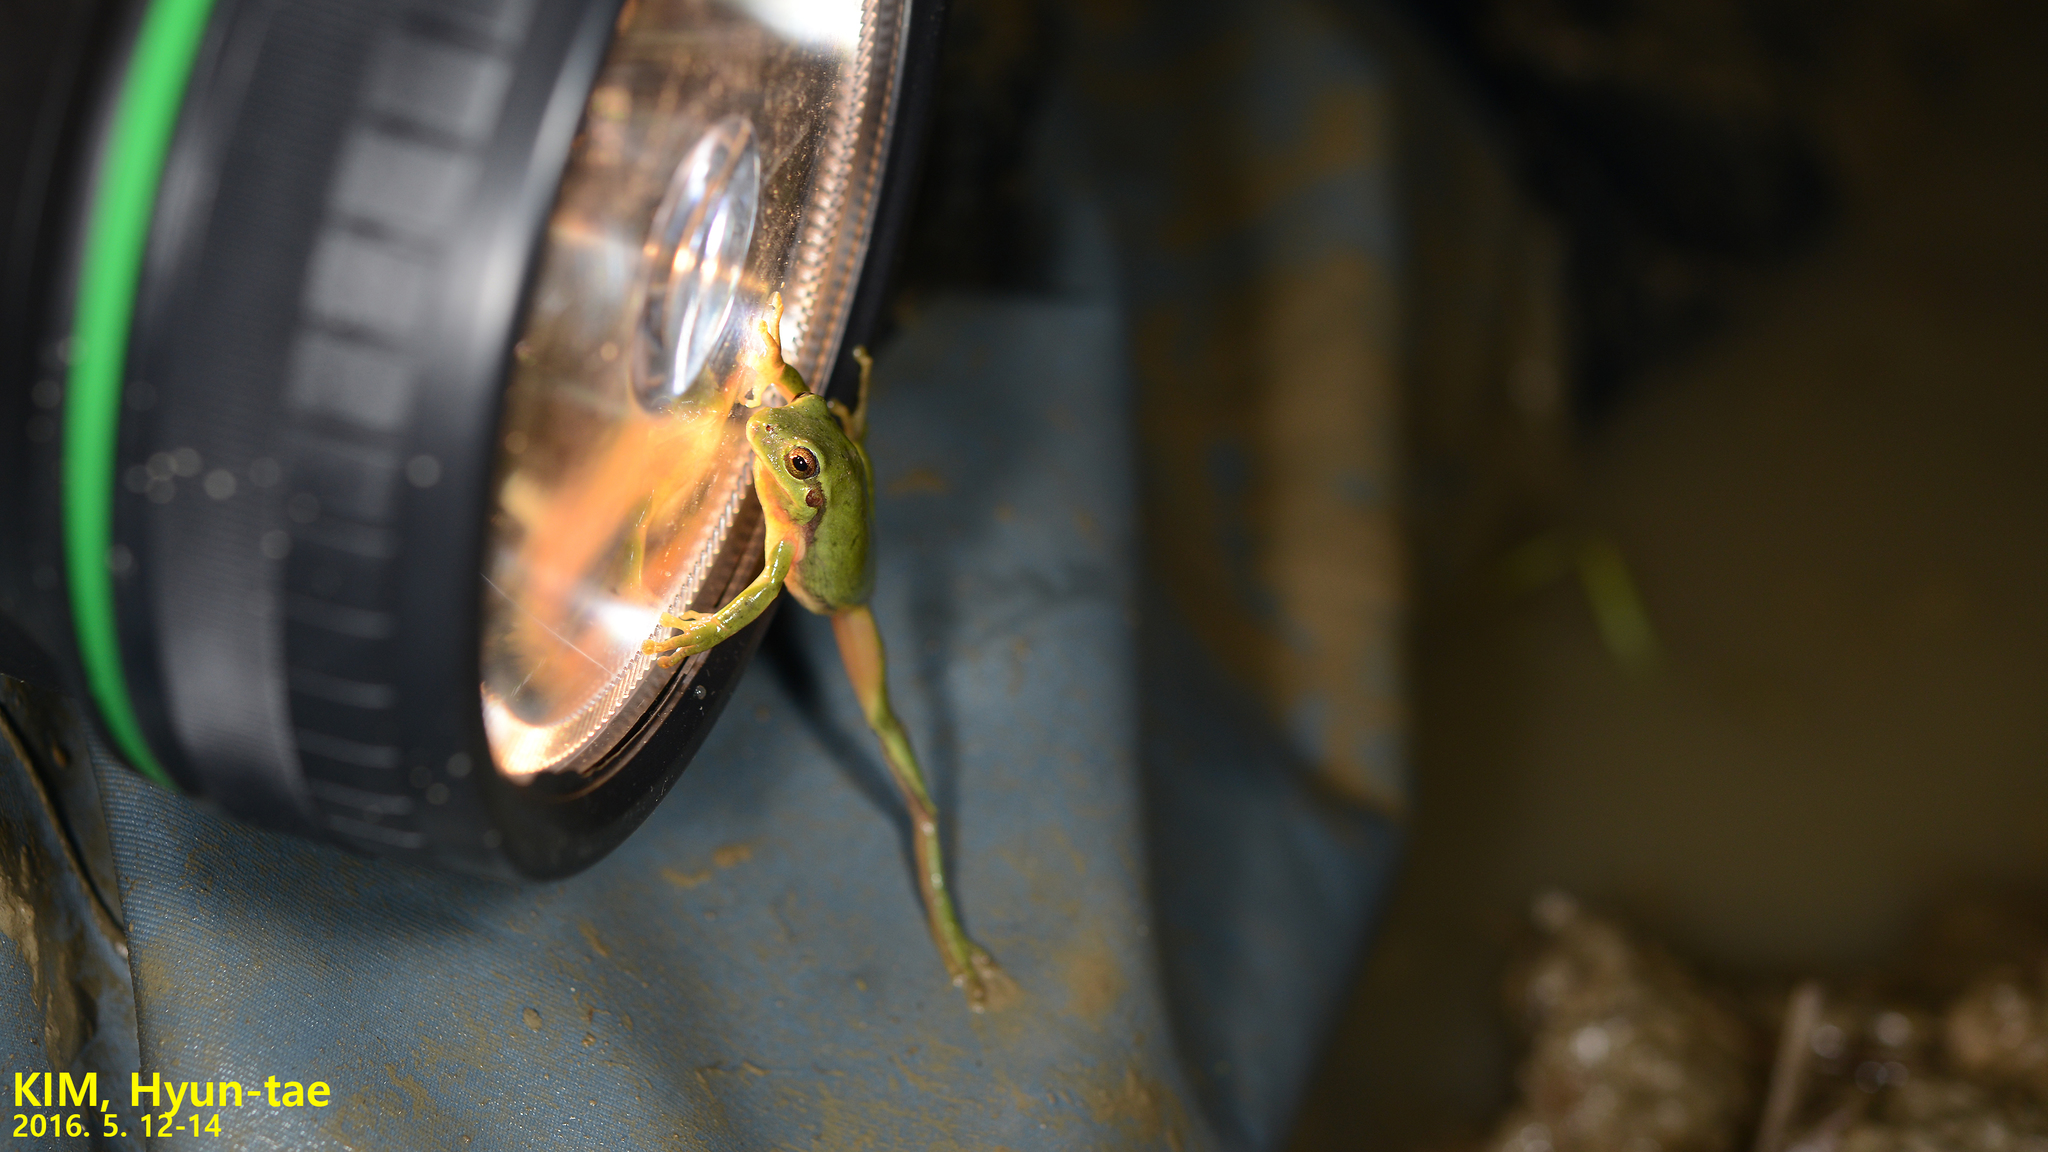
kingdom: Animalia
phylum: Chordata
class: Amphibia
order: Anura
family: Hylidae
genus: Hyla
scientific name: Hyla
